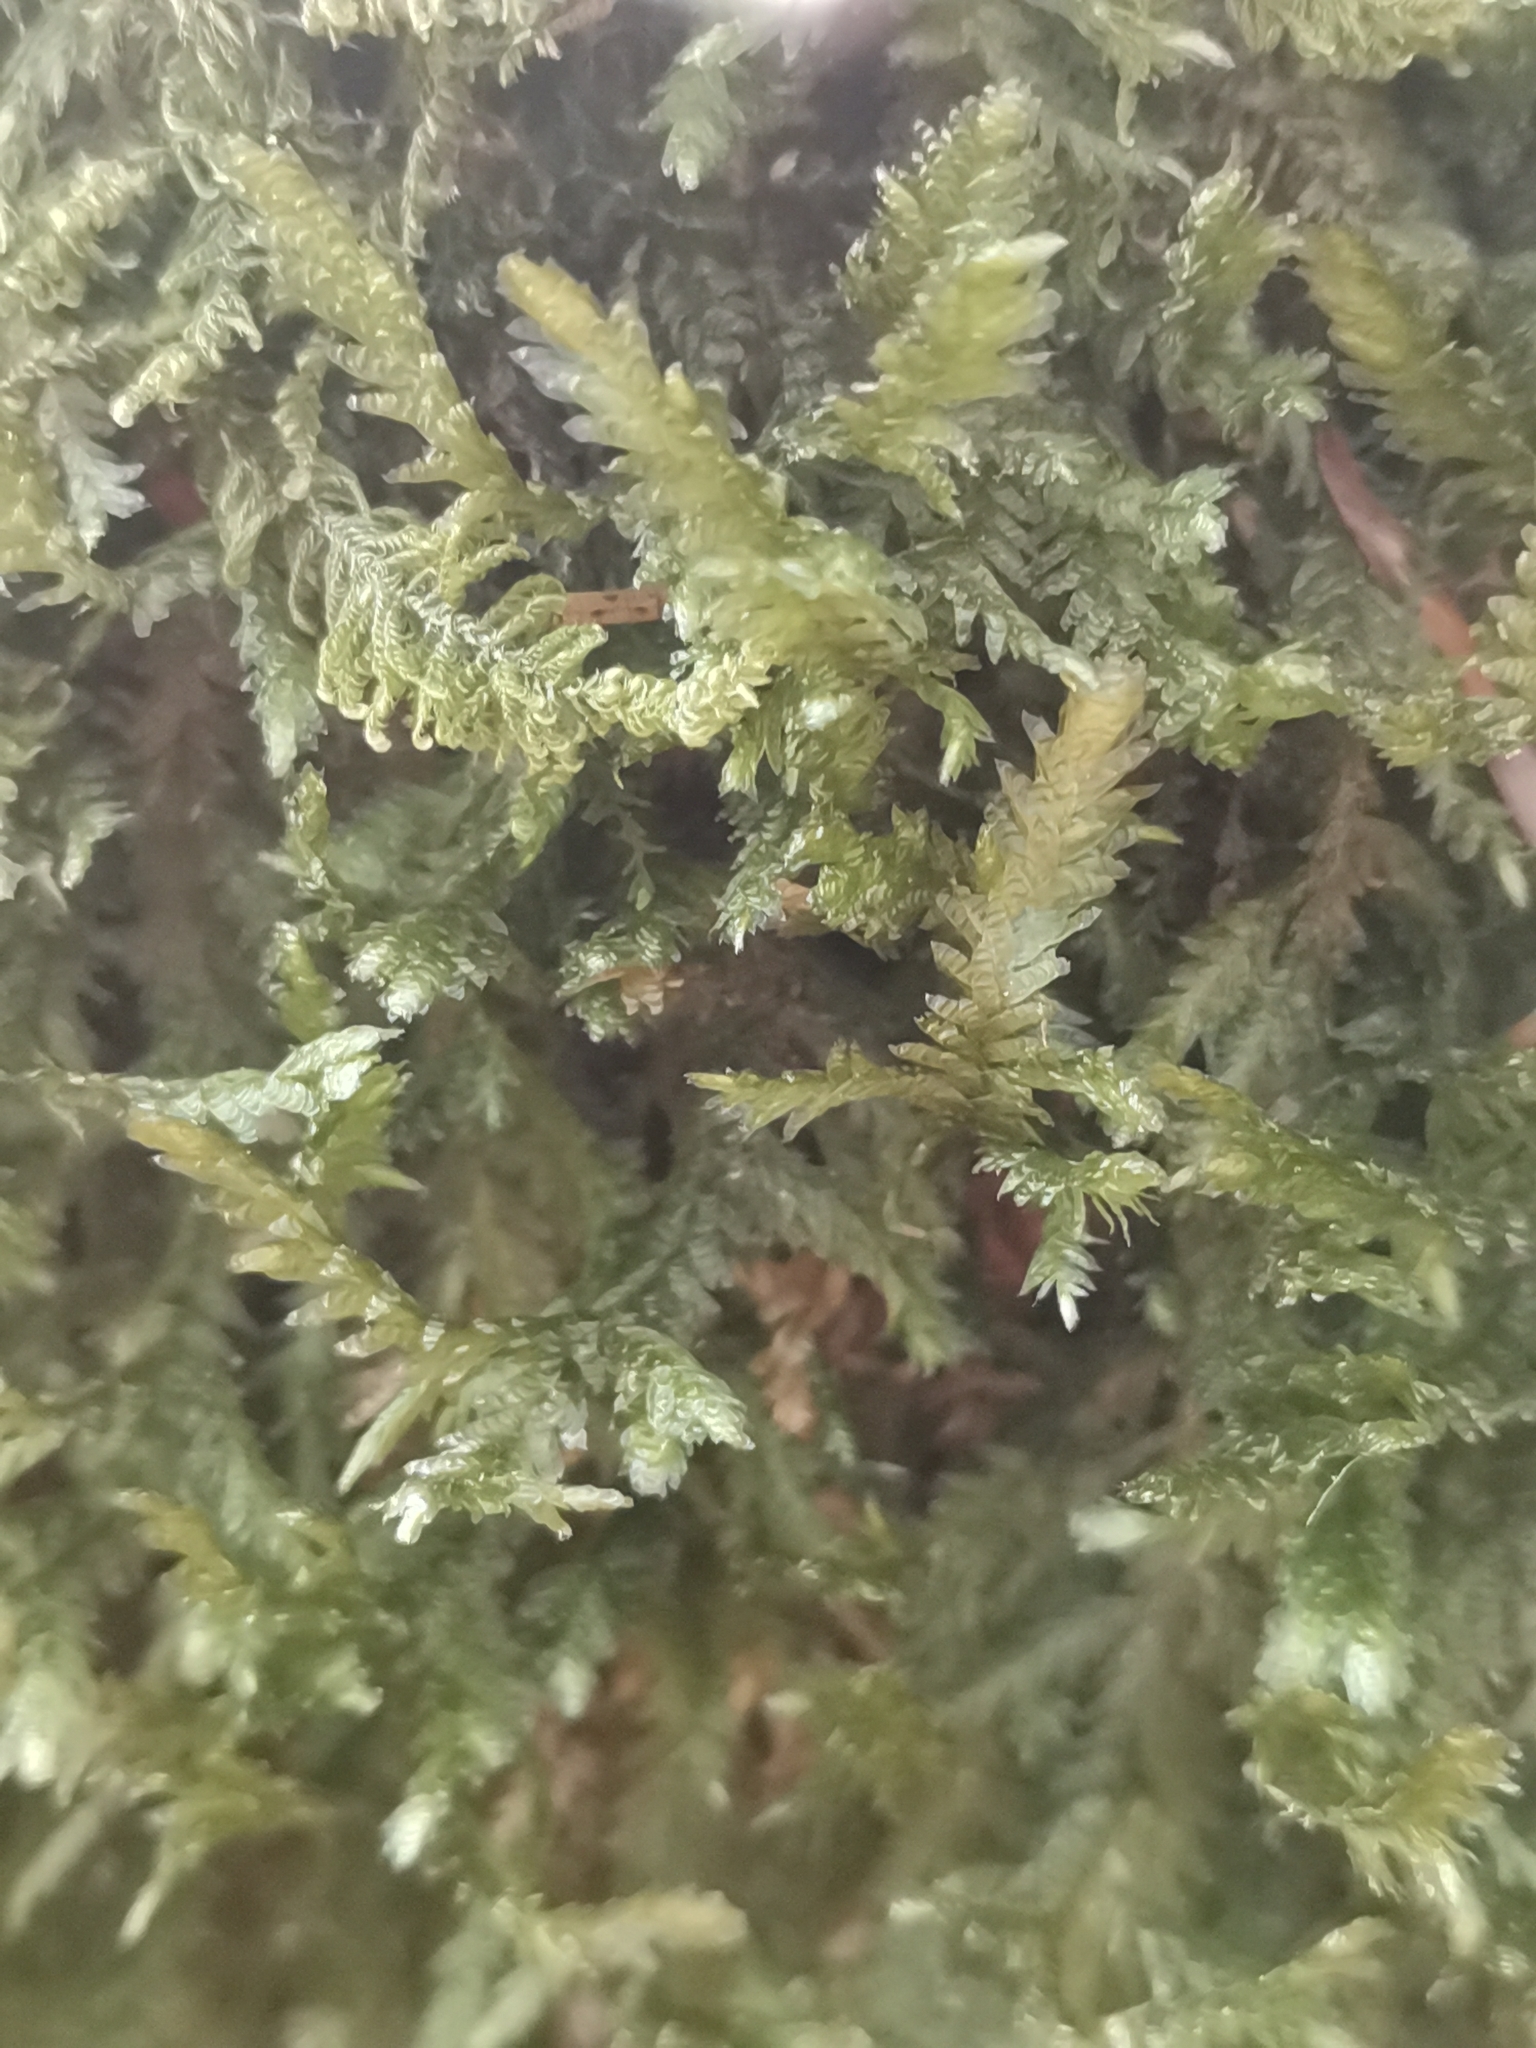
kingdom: Plantae
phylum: Bryophyta
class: Bryopsida
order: Hypnales
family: Neckeraceae
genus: Exsertotheca
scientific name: Exsertotheca crispa
